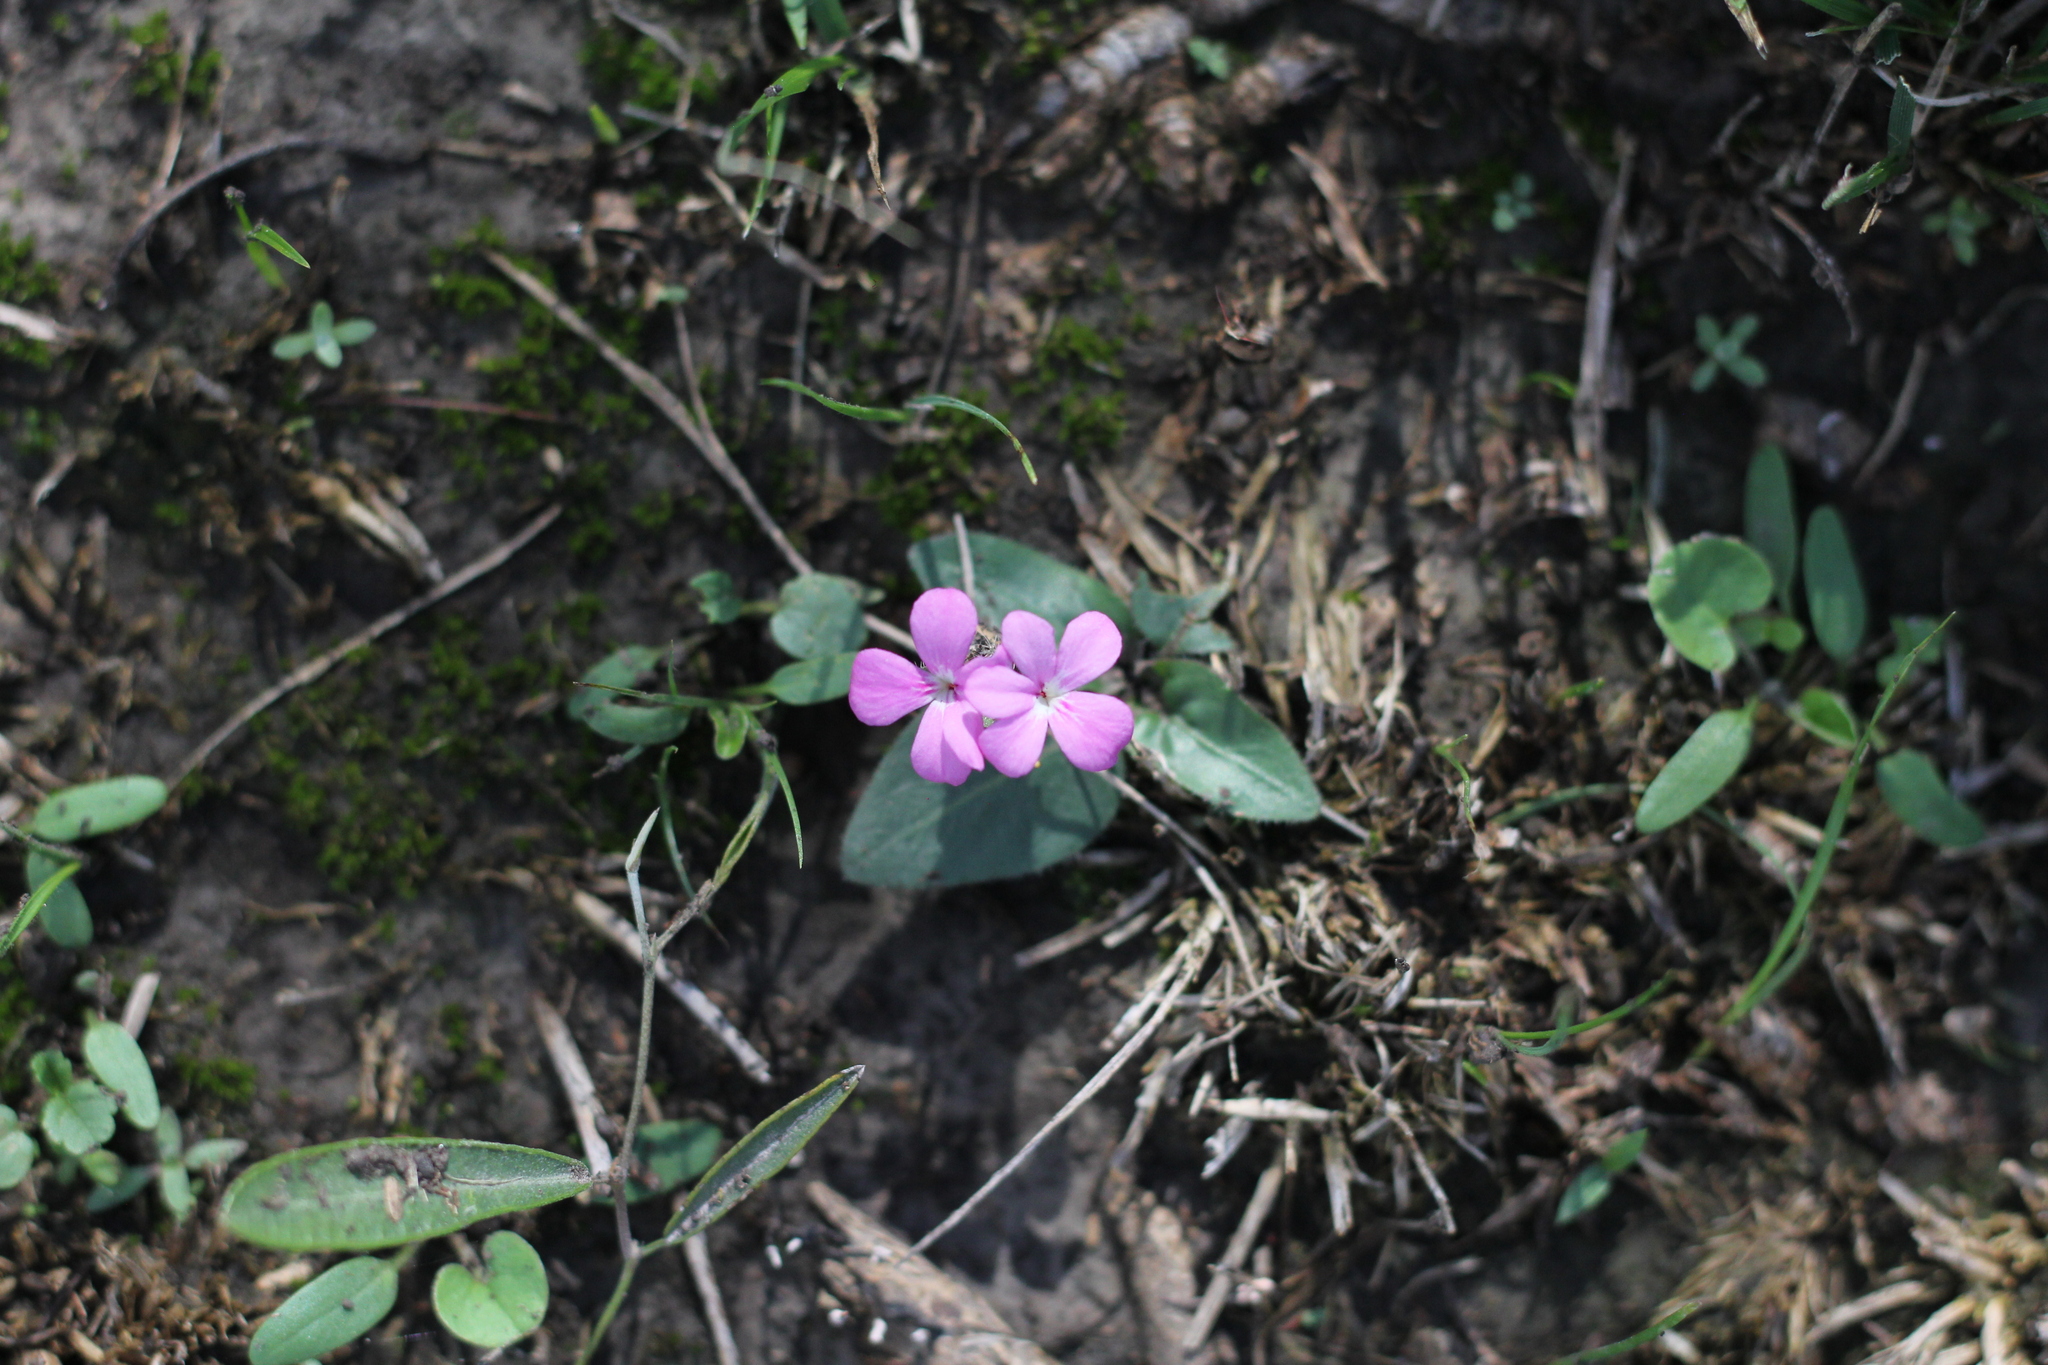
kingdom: Plantae
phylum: Tracheophyta
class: Magnoliopsida
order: Lamiales
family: Acanthaceae
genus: Stenandrium
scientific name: Stenandrium dulce
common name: Pinklet
